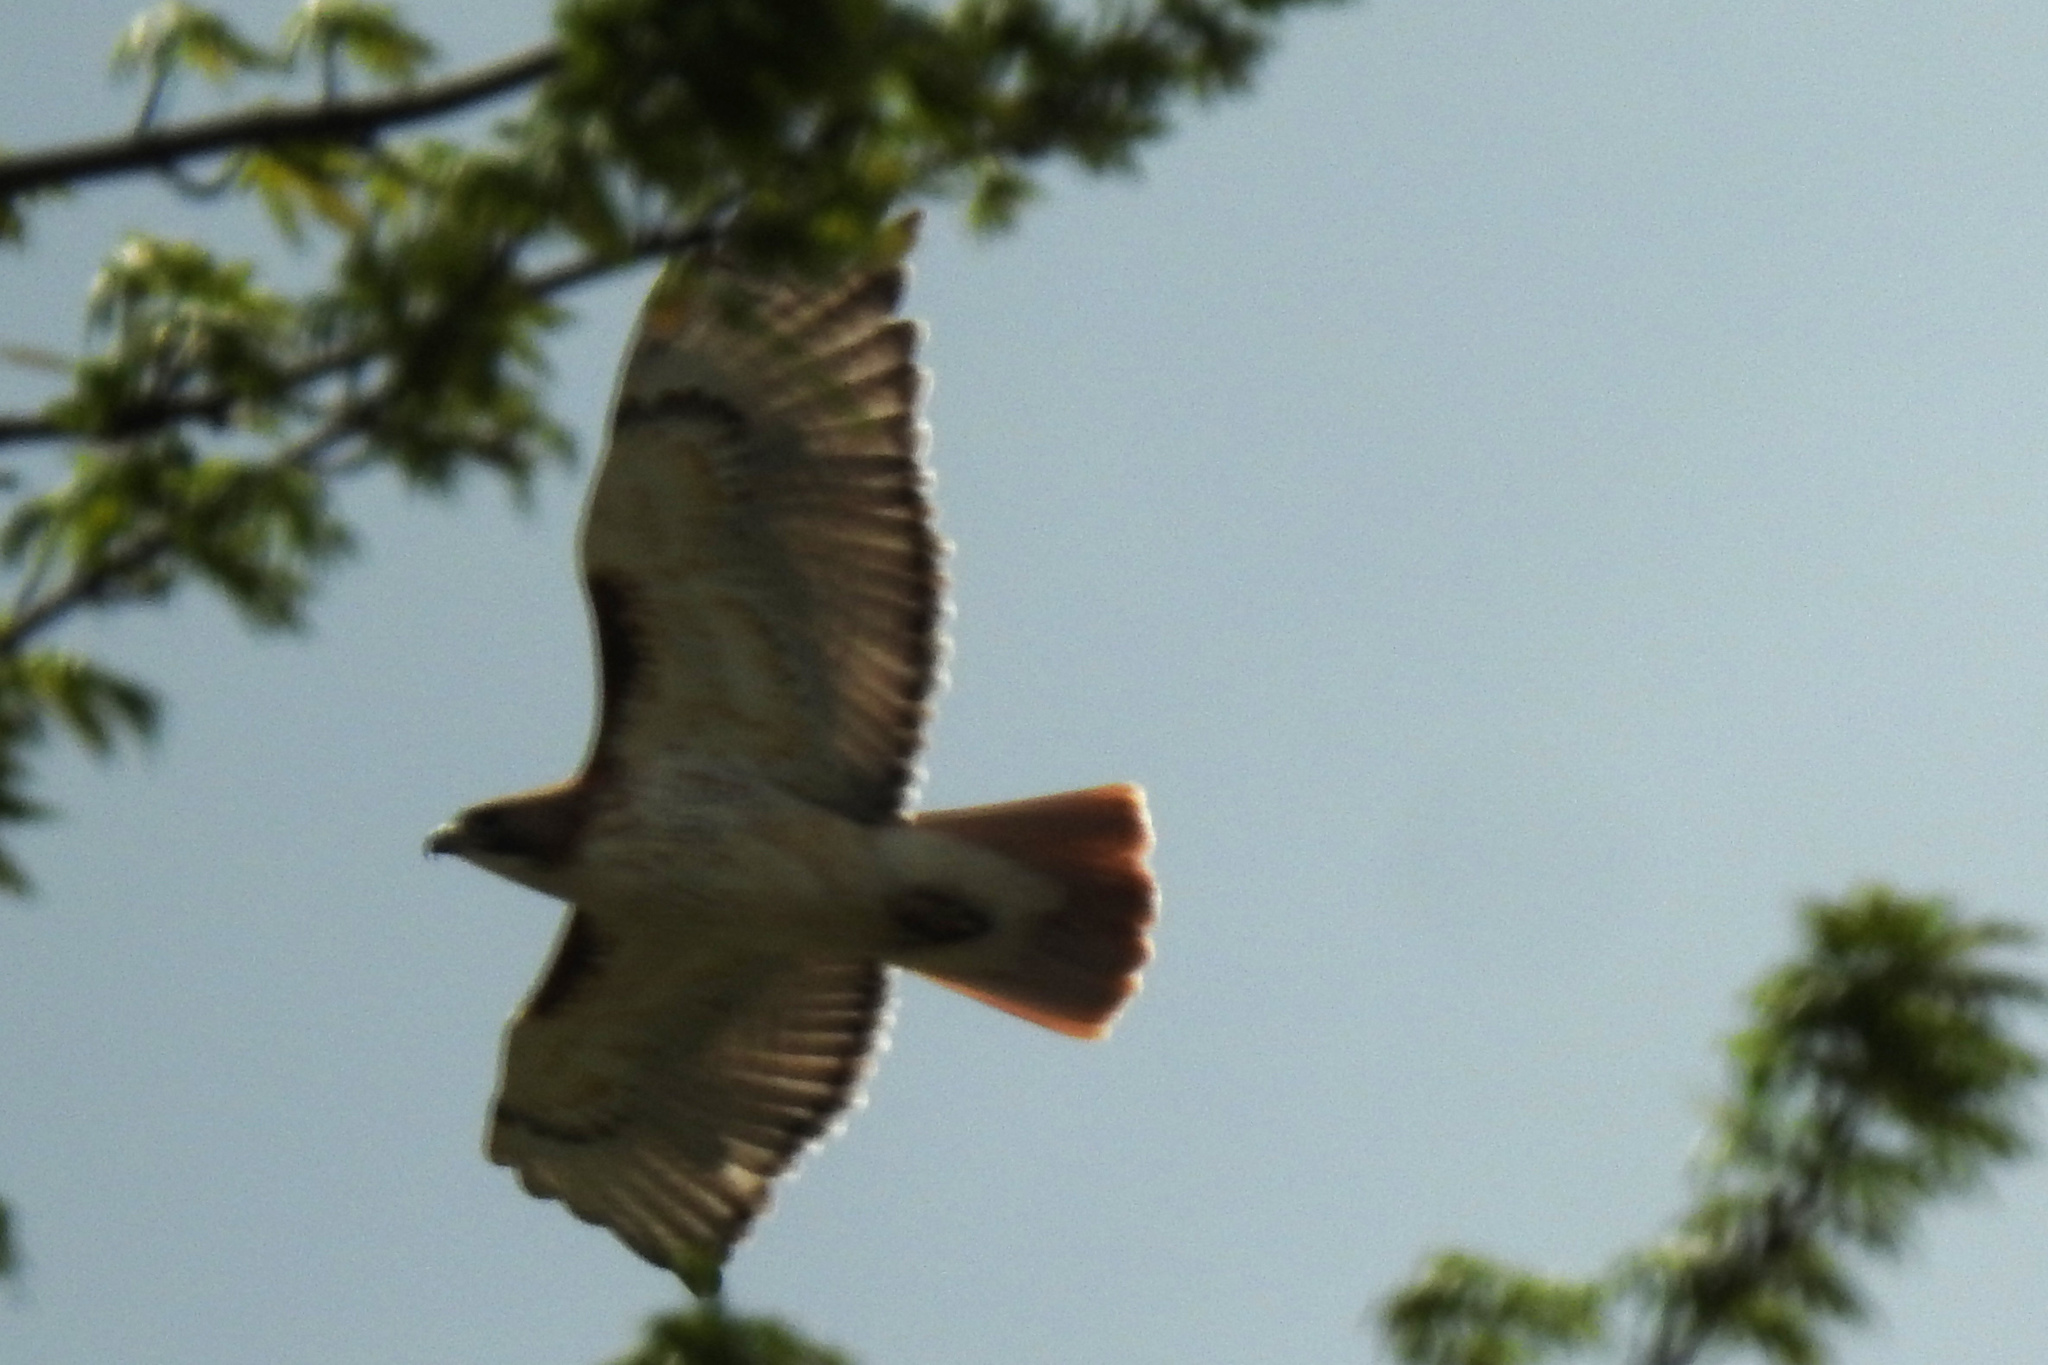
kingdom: Animalia
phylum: Chordata
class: Aves
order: Accipitriformes
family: Accipitridae
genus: Buteo
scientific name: Buteo jamaicensis
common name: Red-tailed hawk
